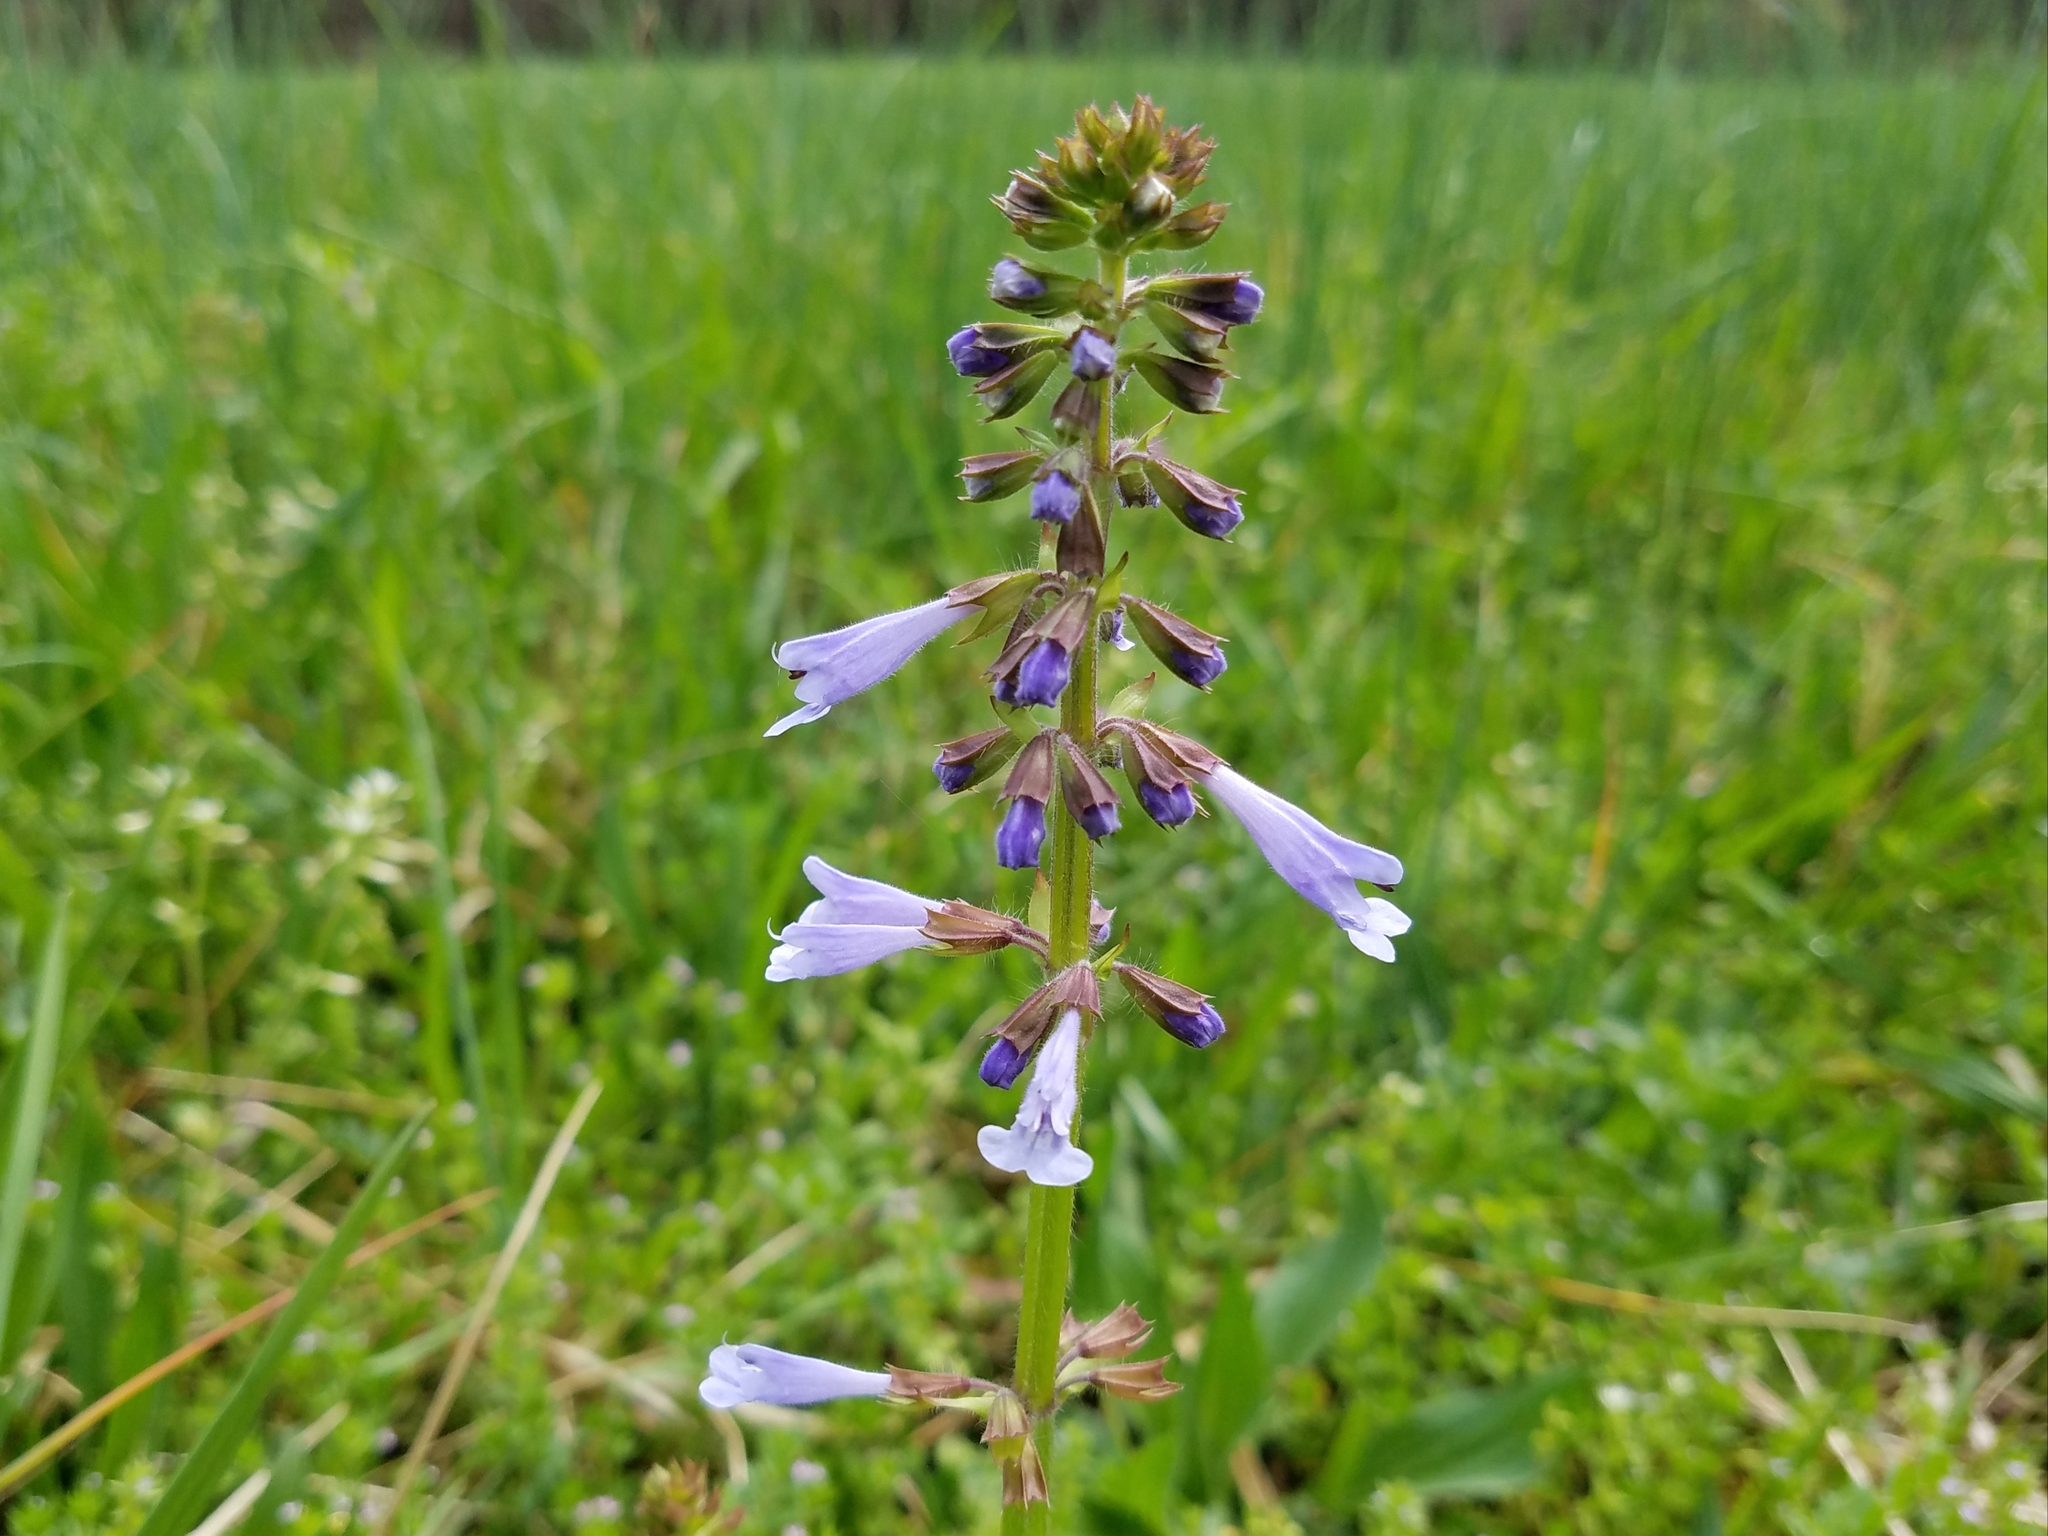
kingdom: Plantae
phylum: Tracheophyta
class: Magnoliopsida
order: Lamiales
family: Lamiaceae
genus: Salvia
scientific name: Salvia lyrata
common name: Cancerweed
